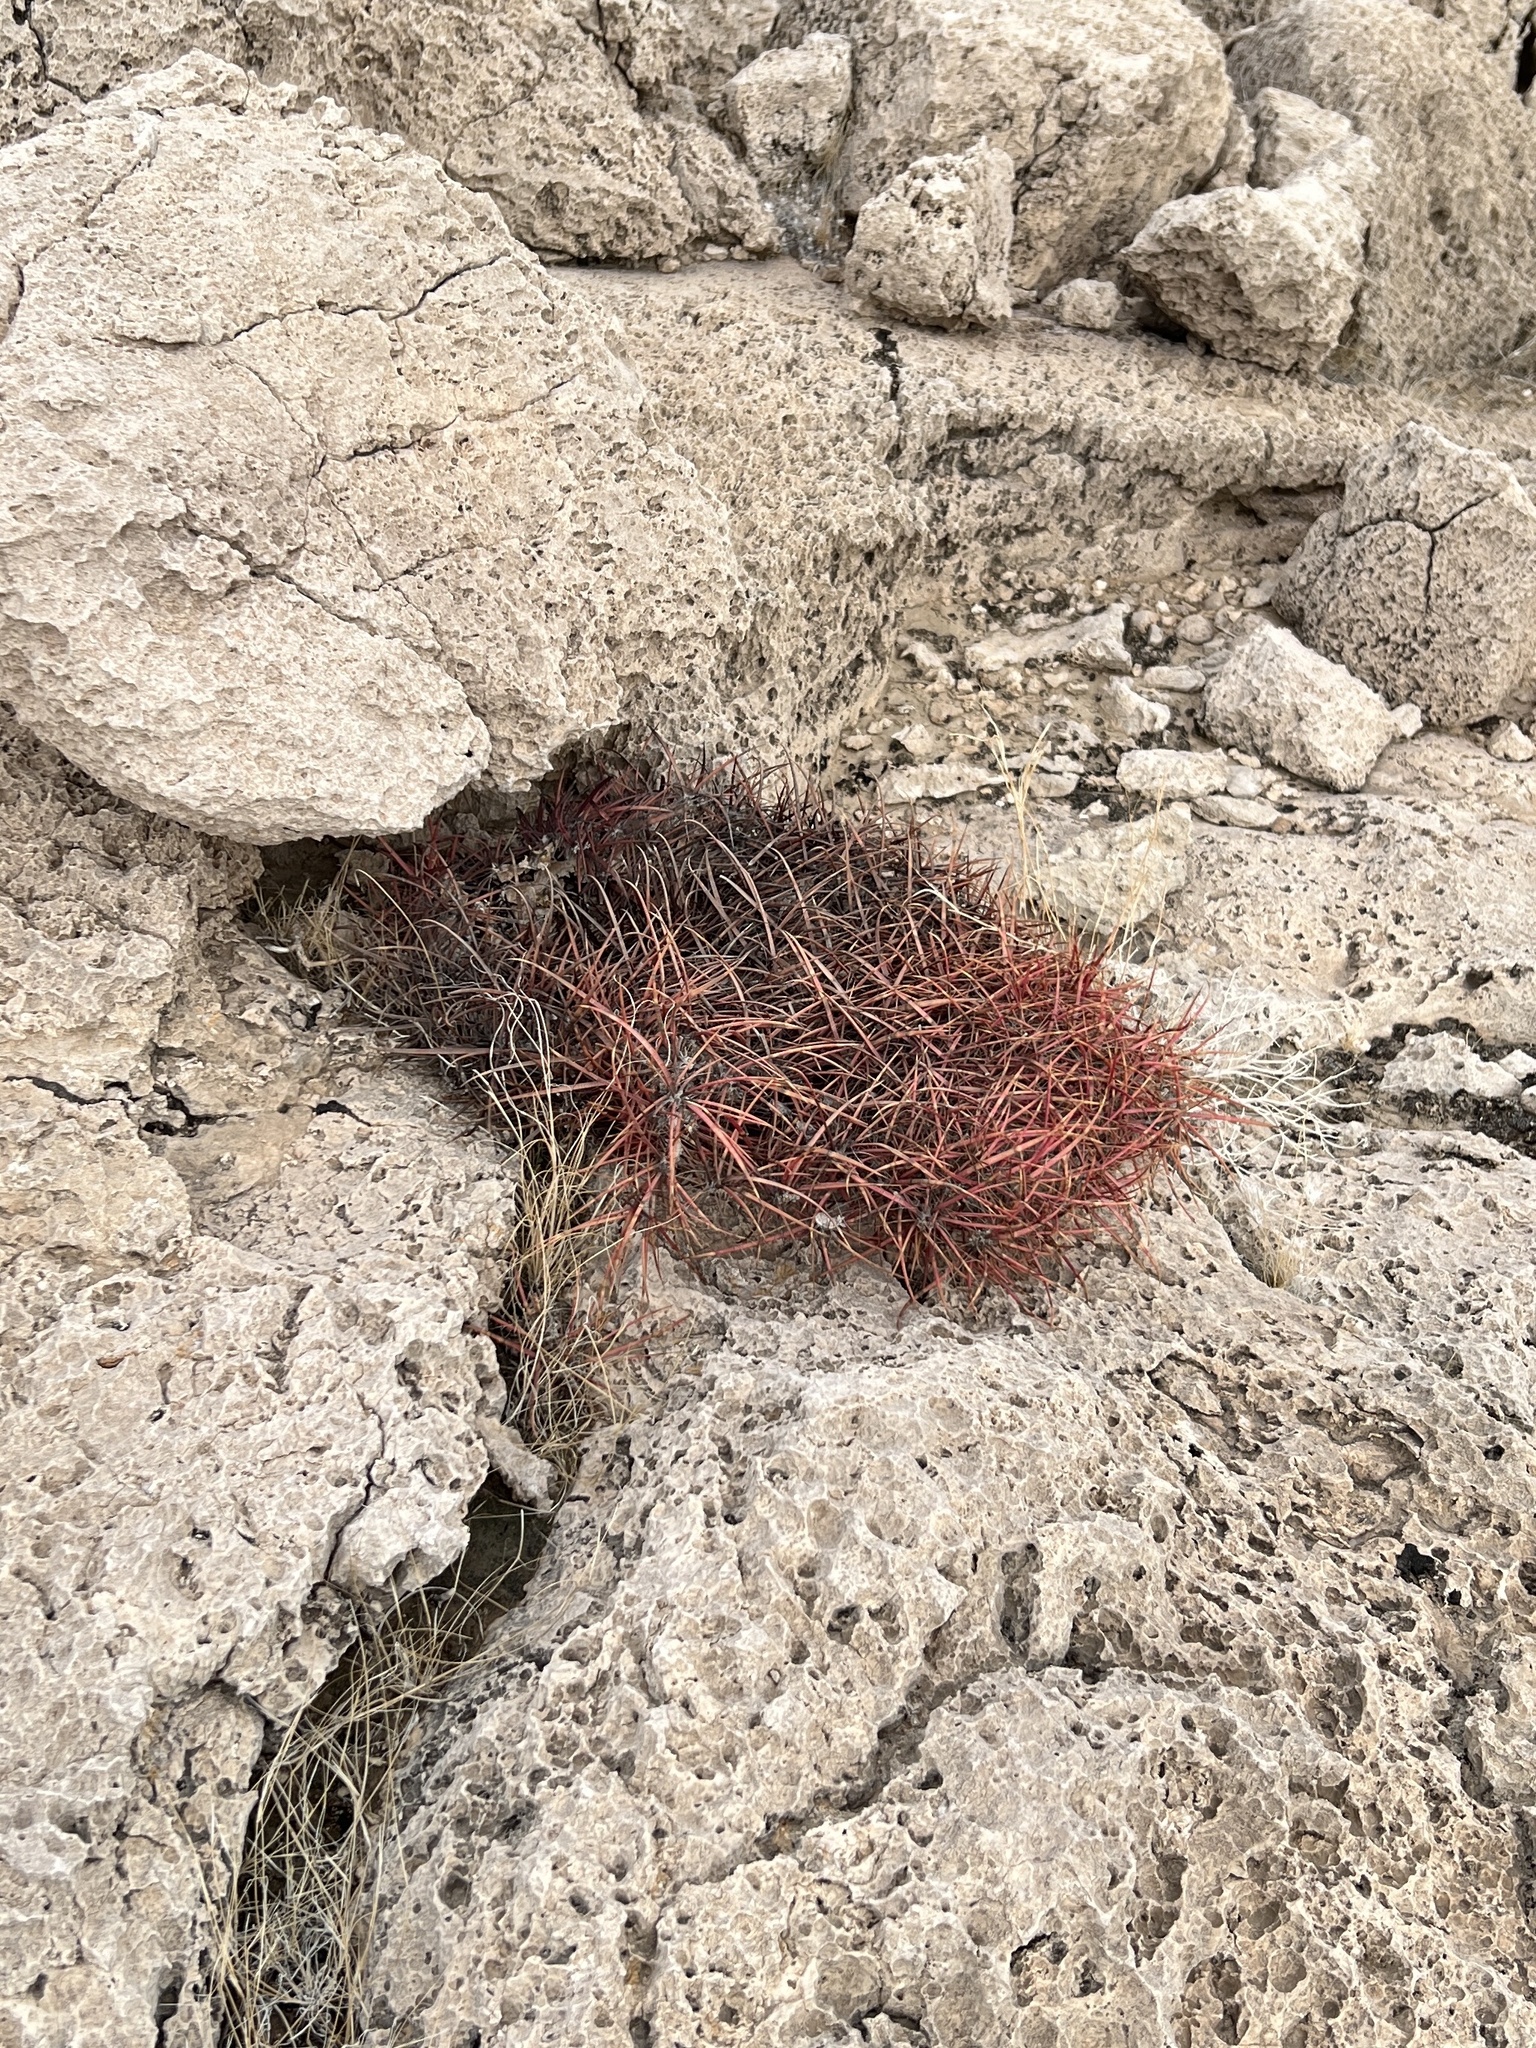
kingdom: Plantae
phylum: Tracheophyta
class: Magnoliopsida
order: Caryophyllales
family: Cactaceae
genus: Ferocactus
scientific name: Ferocactus cylindraceus
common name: California barrel cactus
